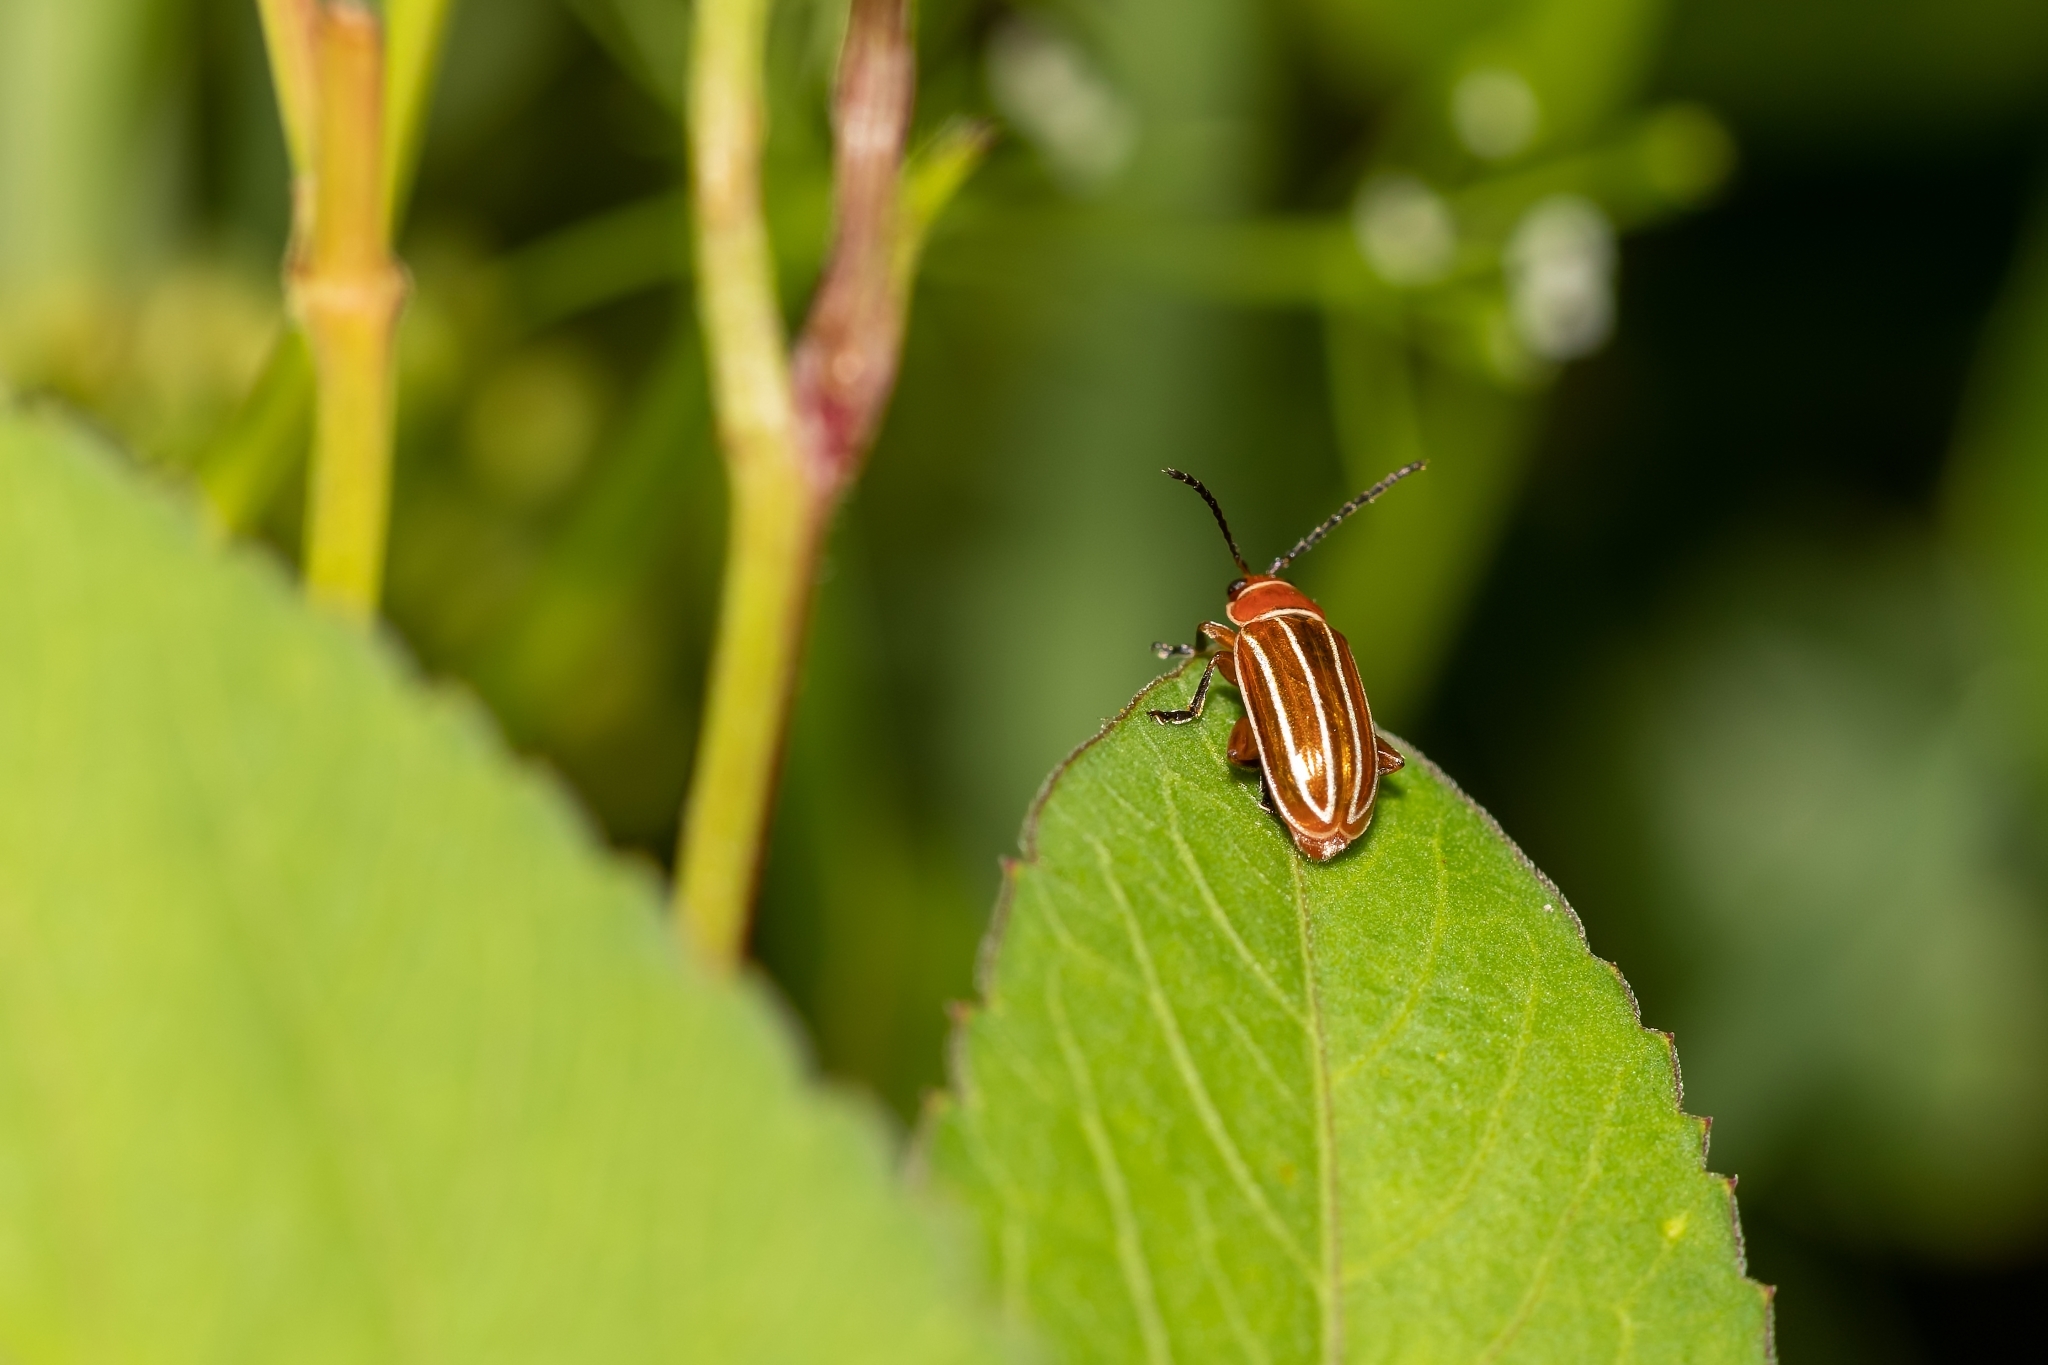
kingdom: Animalia
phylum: Arthropoda
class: Insecta
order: Coleoptera
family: Chrysomelidae
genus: Disonycha
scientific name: Disonycha conjugata
